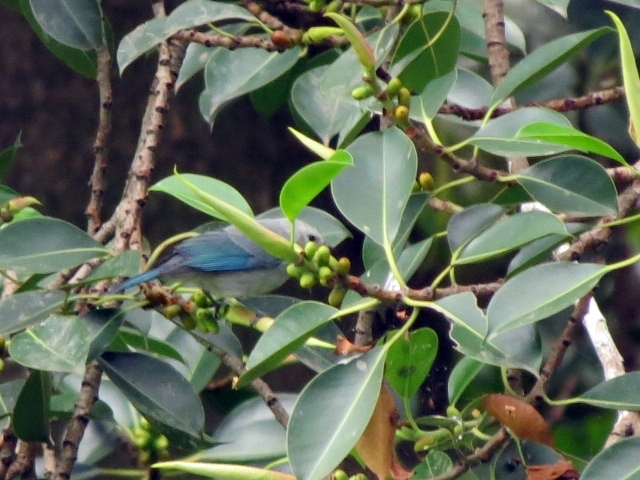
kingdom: Animalia
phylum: Chordata
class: Aves
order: Passeriformes
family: Thraupidae
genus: Thraupis
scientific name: Thraupis episcopus
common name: Blue-grey tanager
